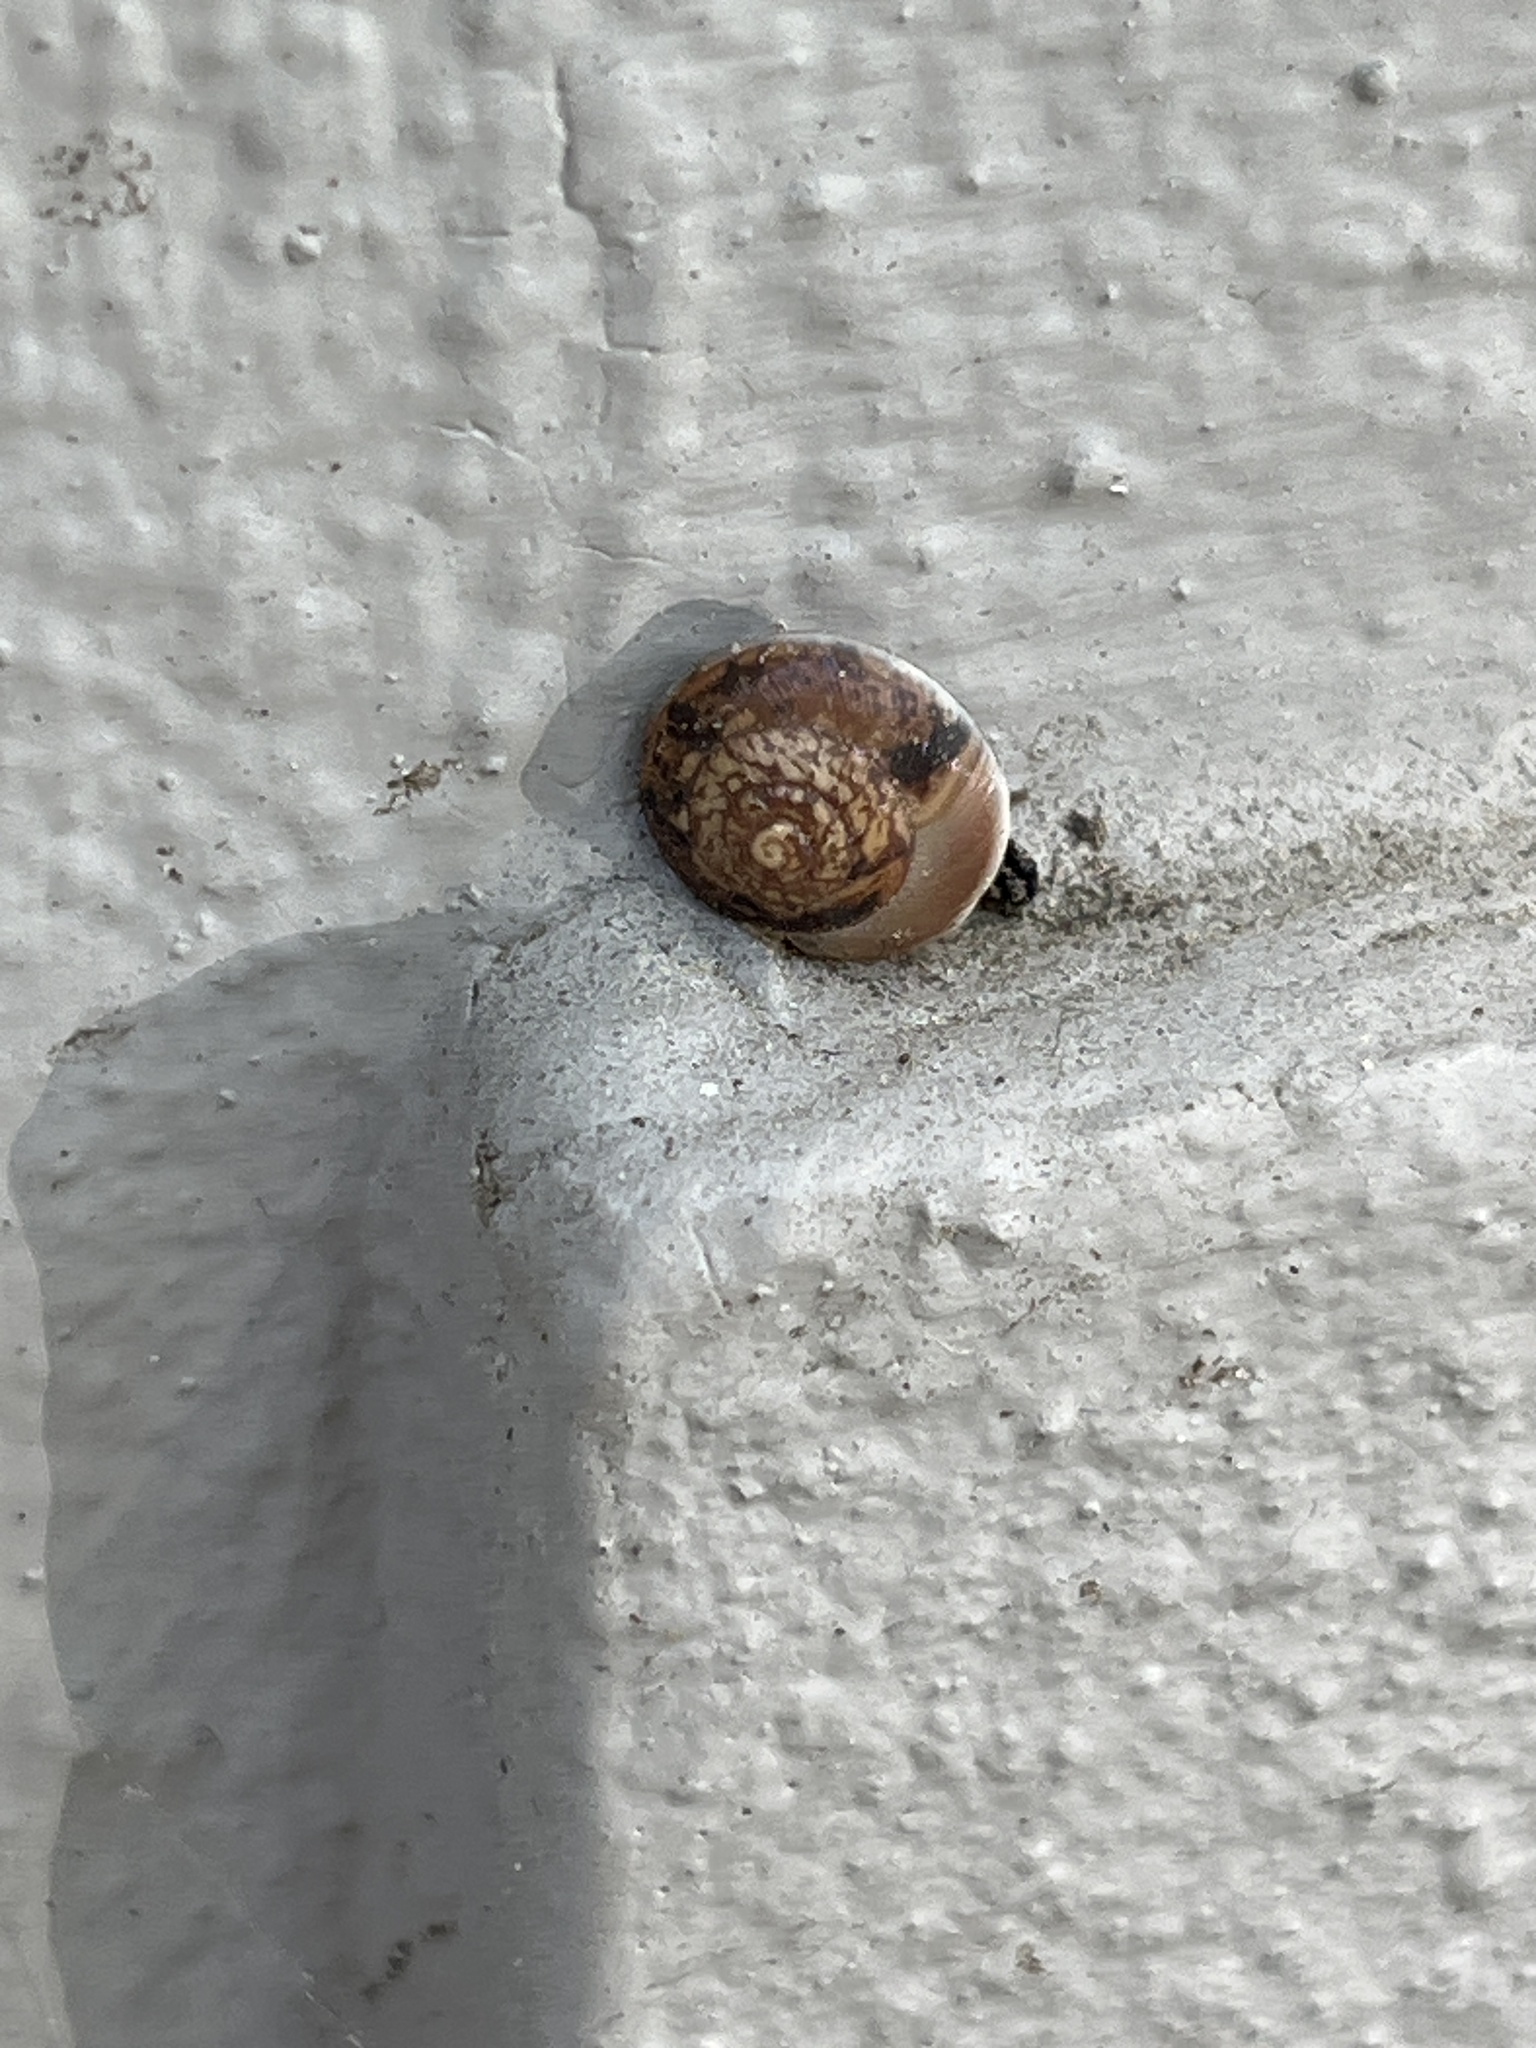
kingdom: Animalia
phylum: Mollusca
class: Gastropoda
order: Stylommatophora
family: Hygromiidae
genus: Hygromia
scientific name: Hygromia cinctella
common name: Girdled snail
